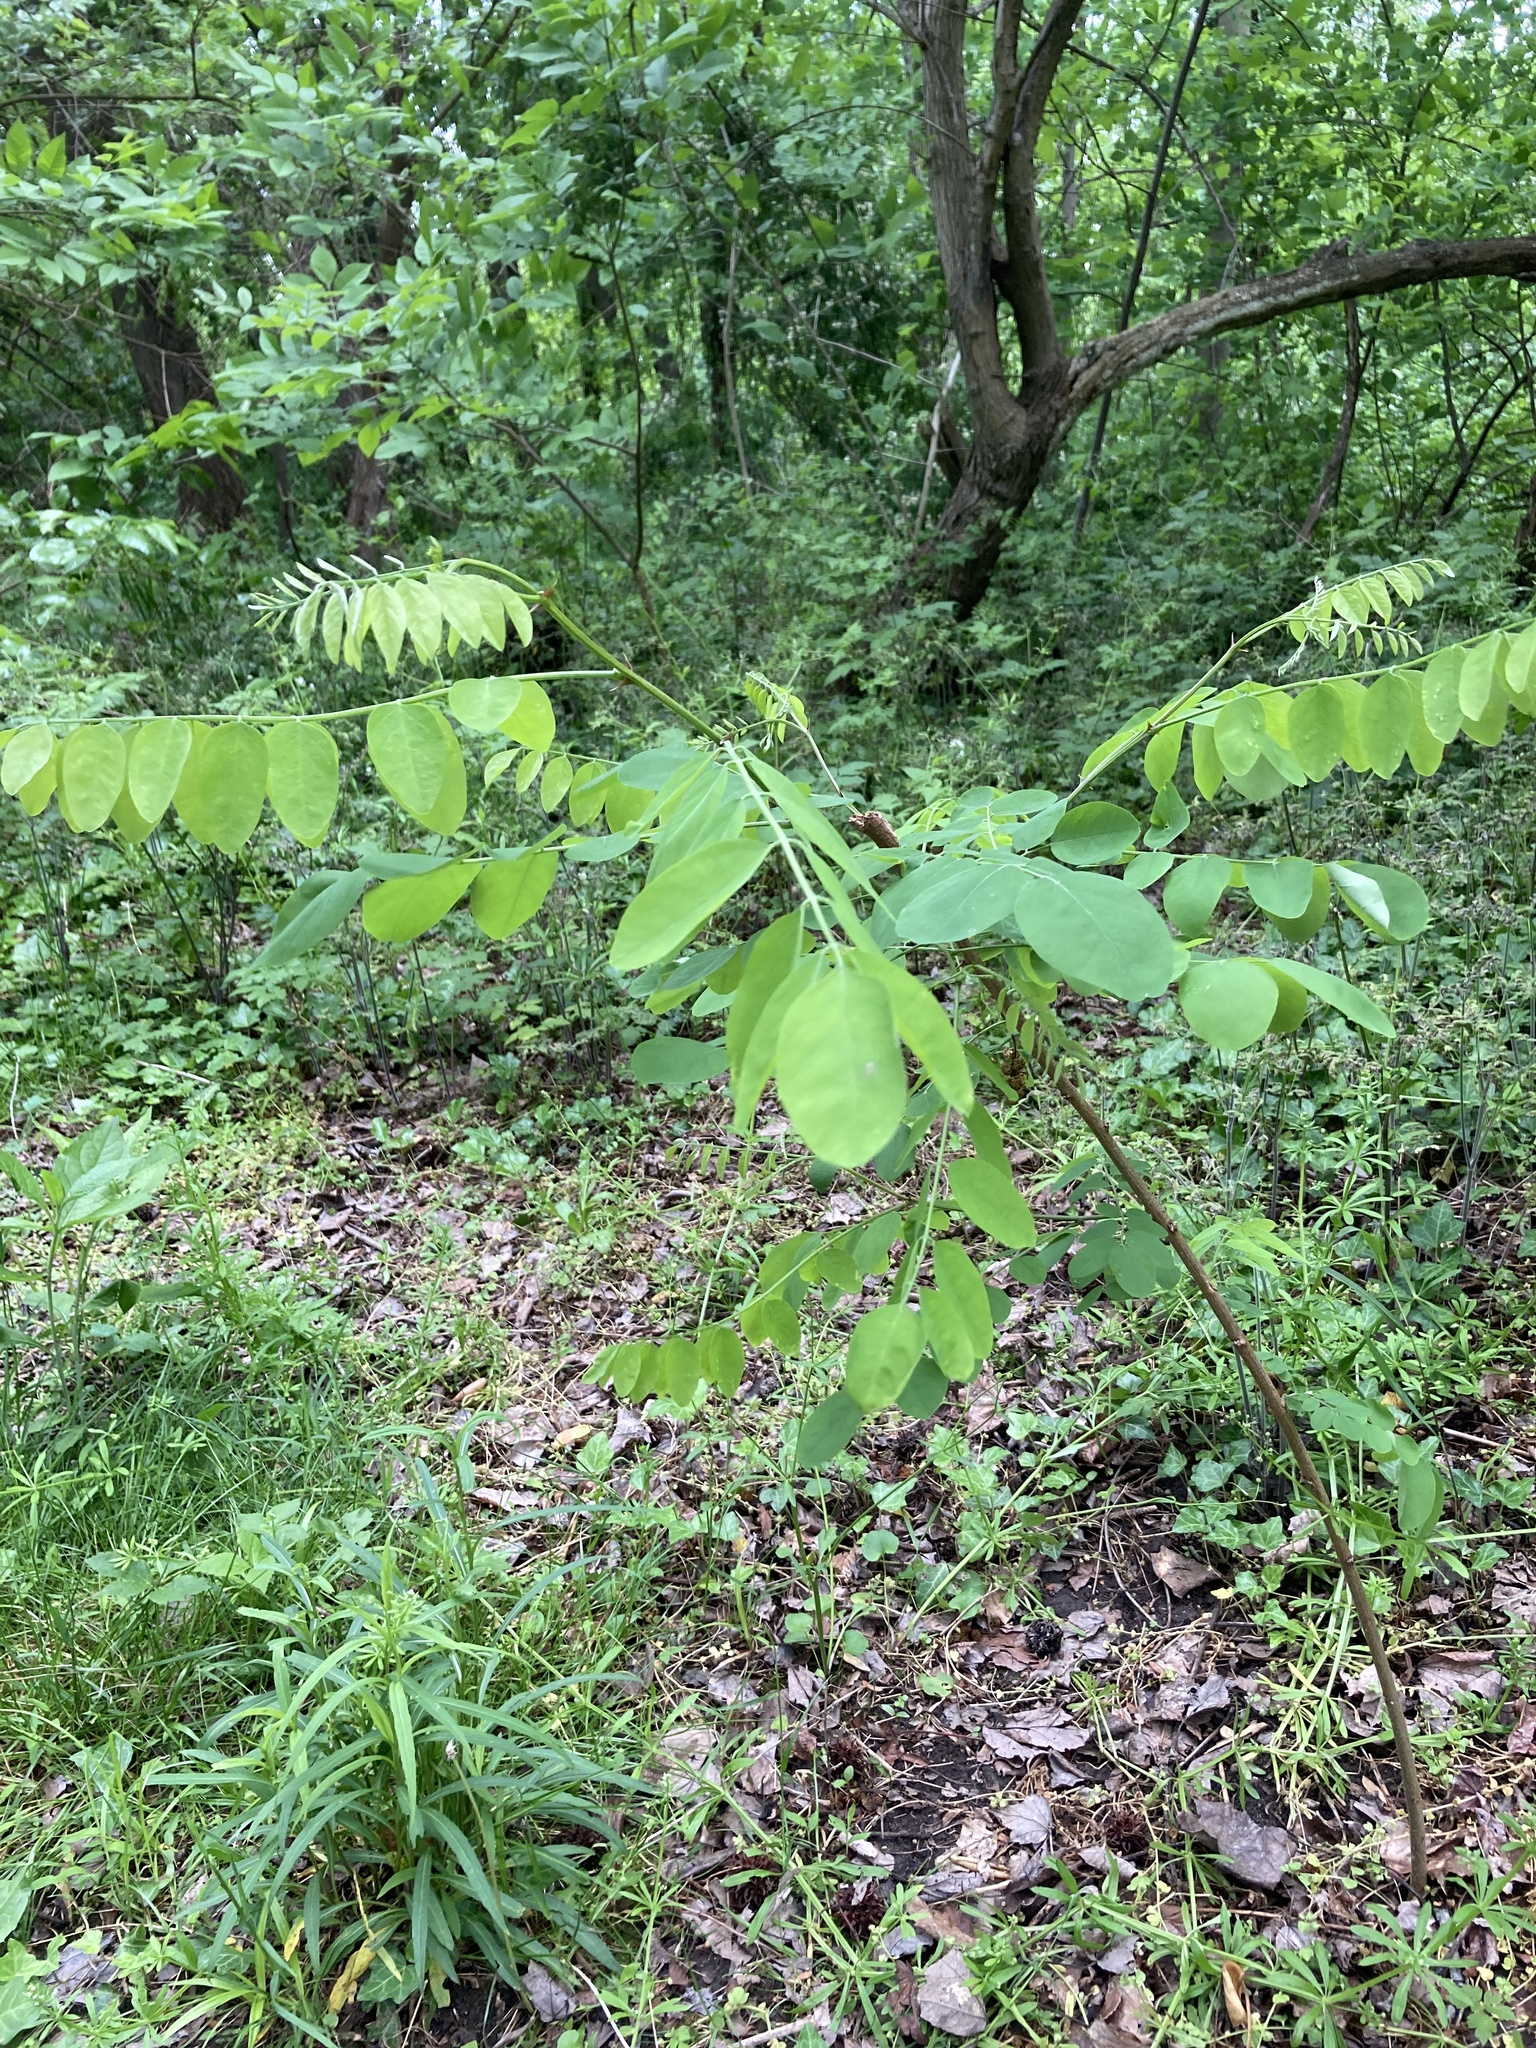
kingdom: Plantae
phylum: Tracheophyta
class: Magnoliopsida
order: Fabales
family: Fabaceae
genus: Robinia
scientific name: Robinia pseudoacacia
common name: Black locust
